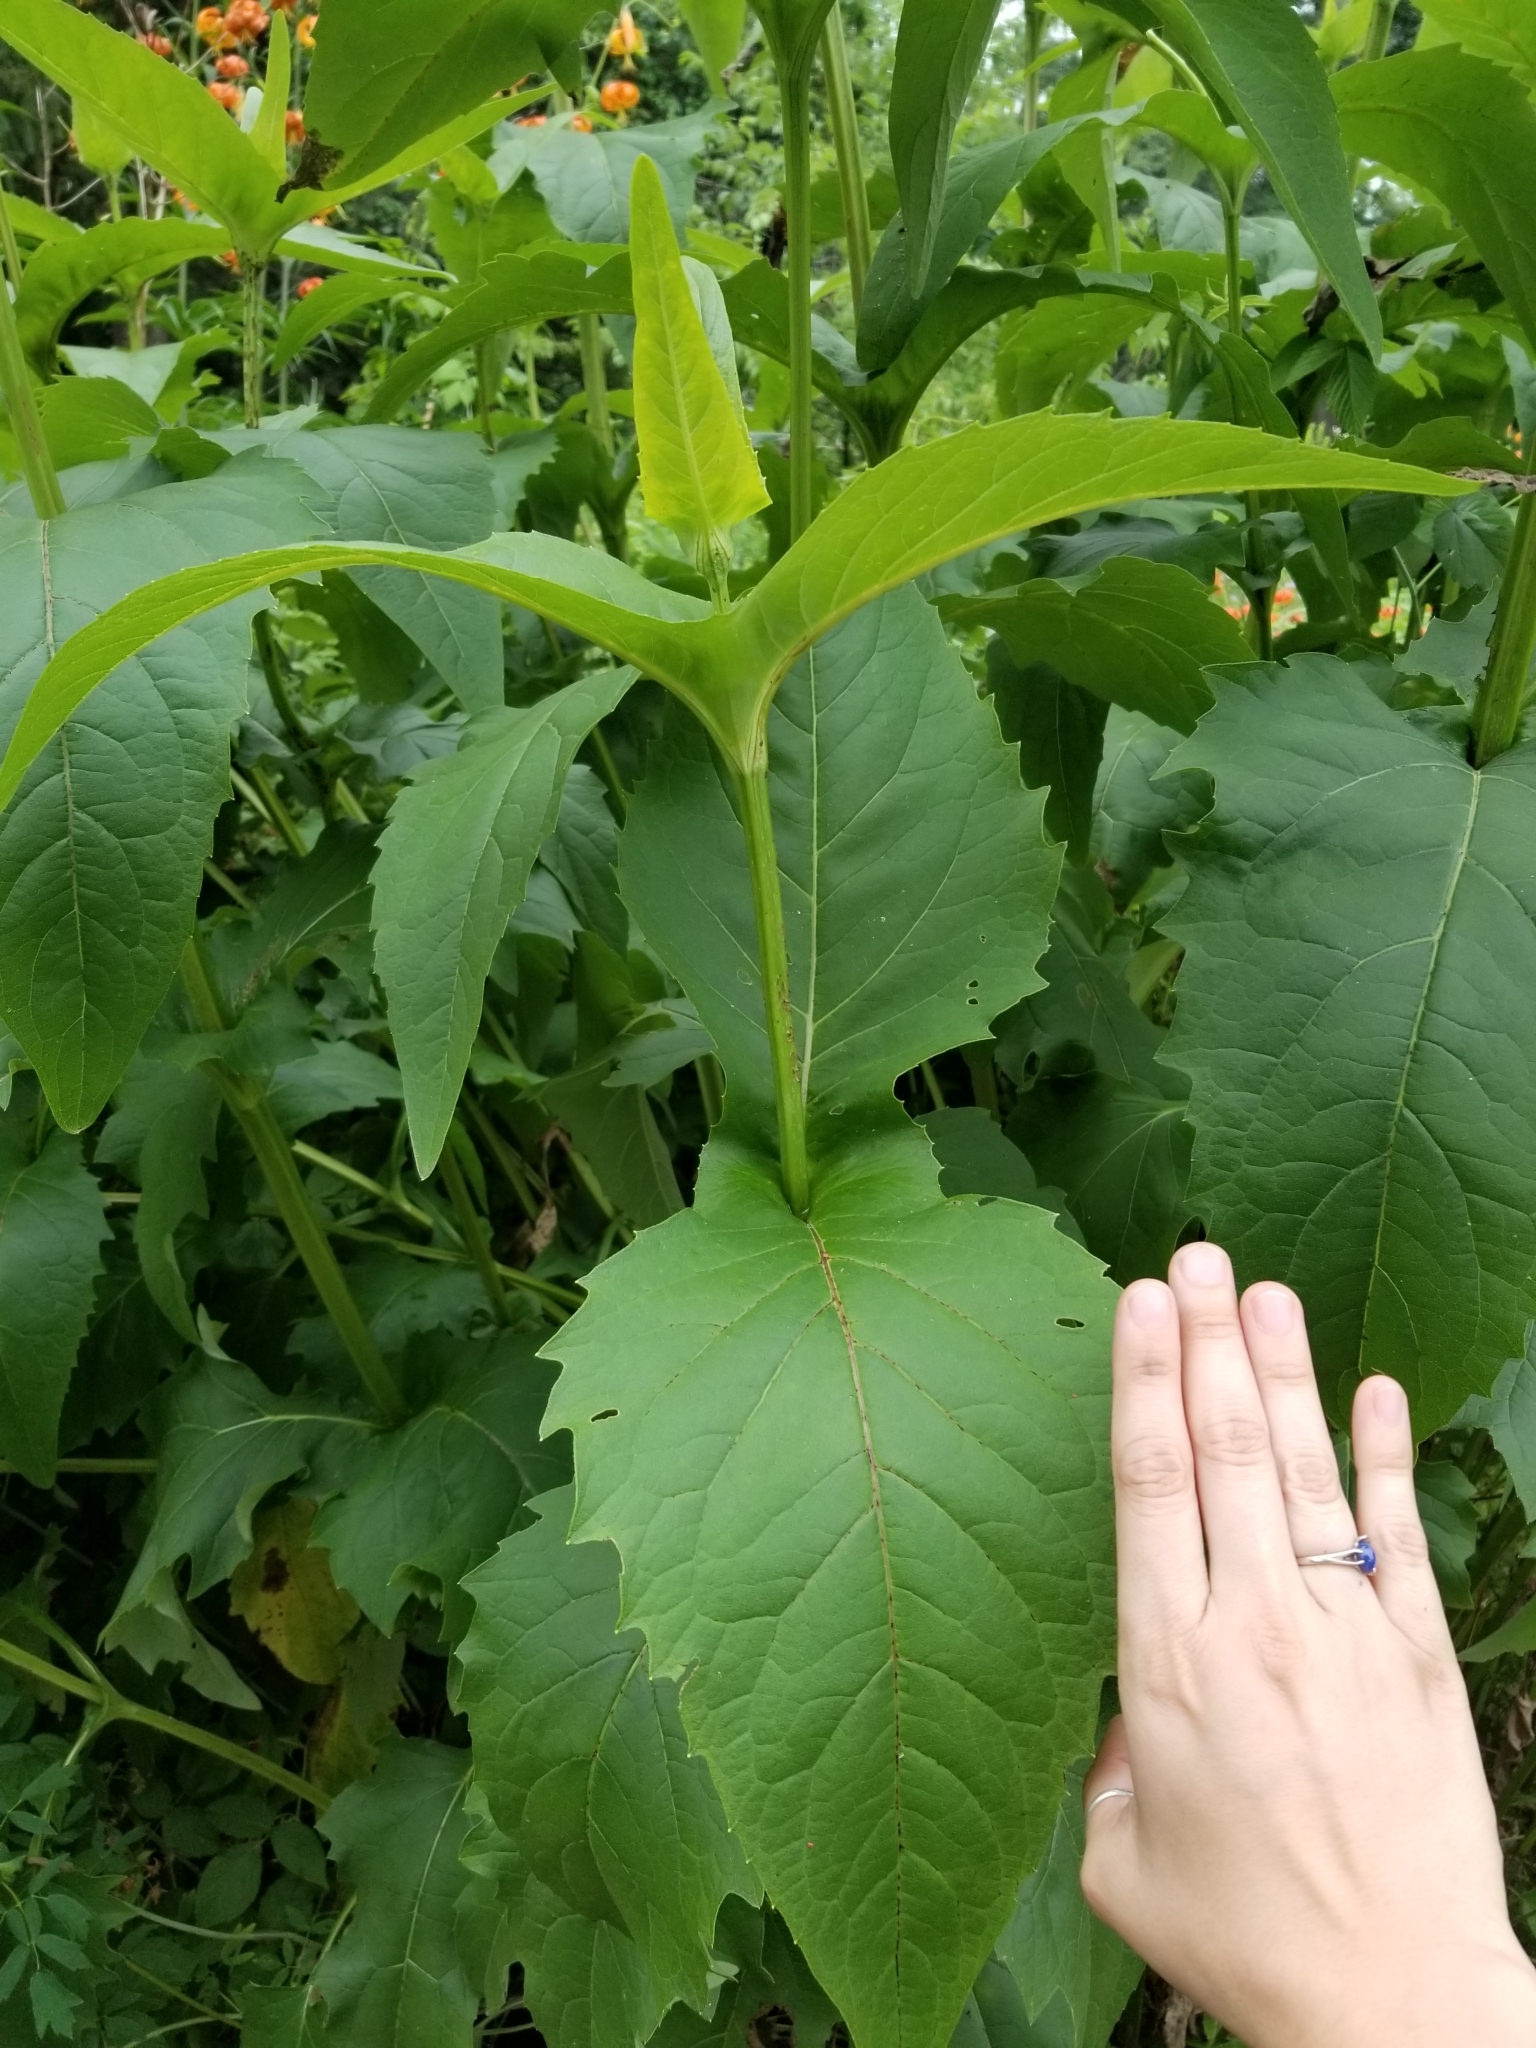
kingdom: Plantae
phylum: Tracheophyta
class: Magnoliopsida
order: Asterales
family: Asteraceae
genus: Silphium
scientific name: Silphium perfoliatum
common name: Cup-plant
